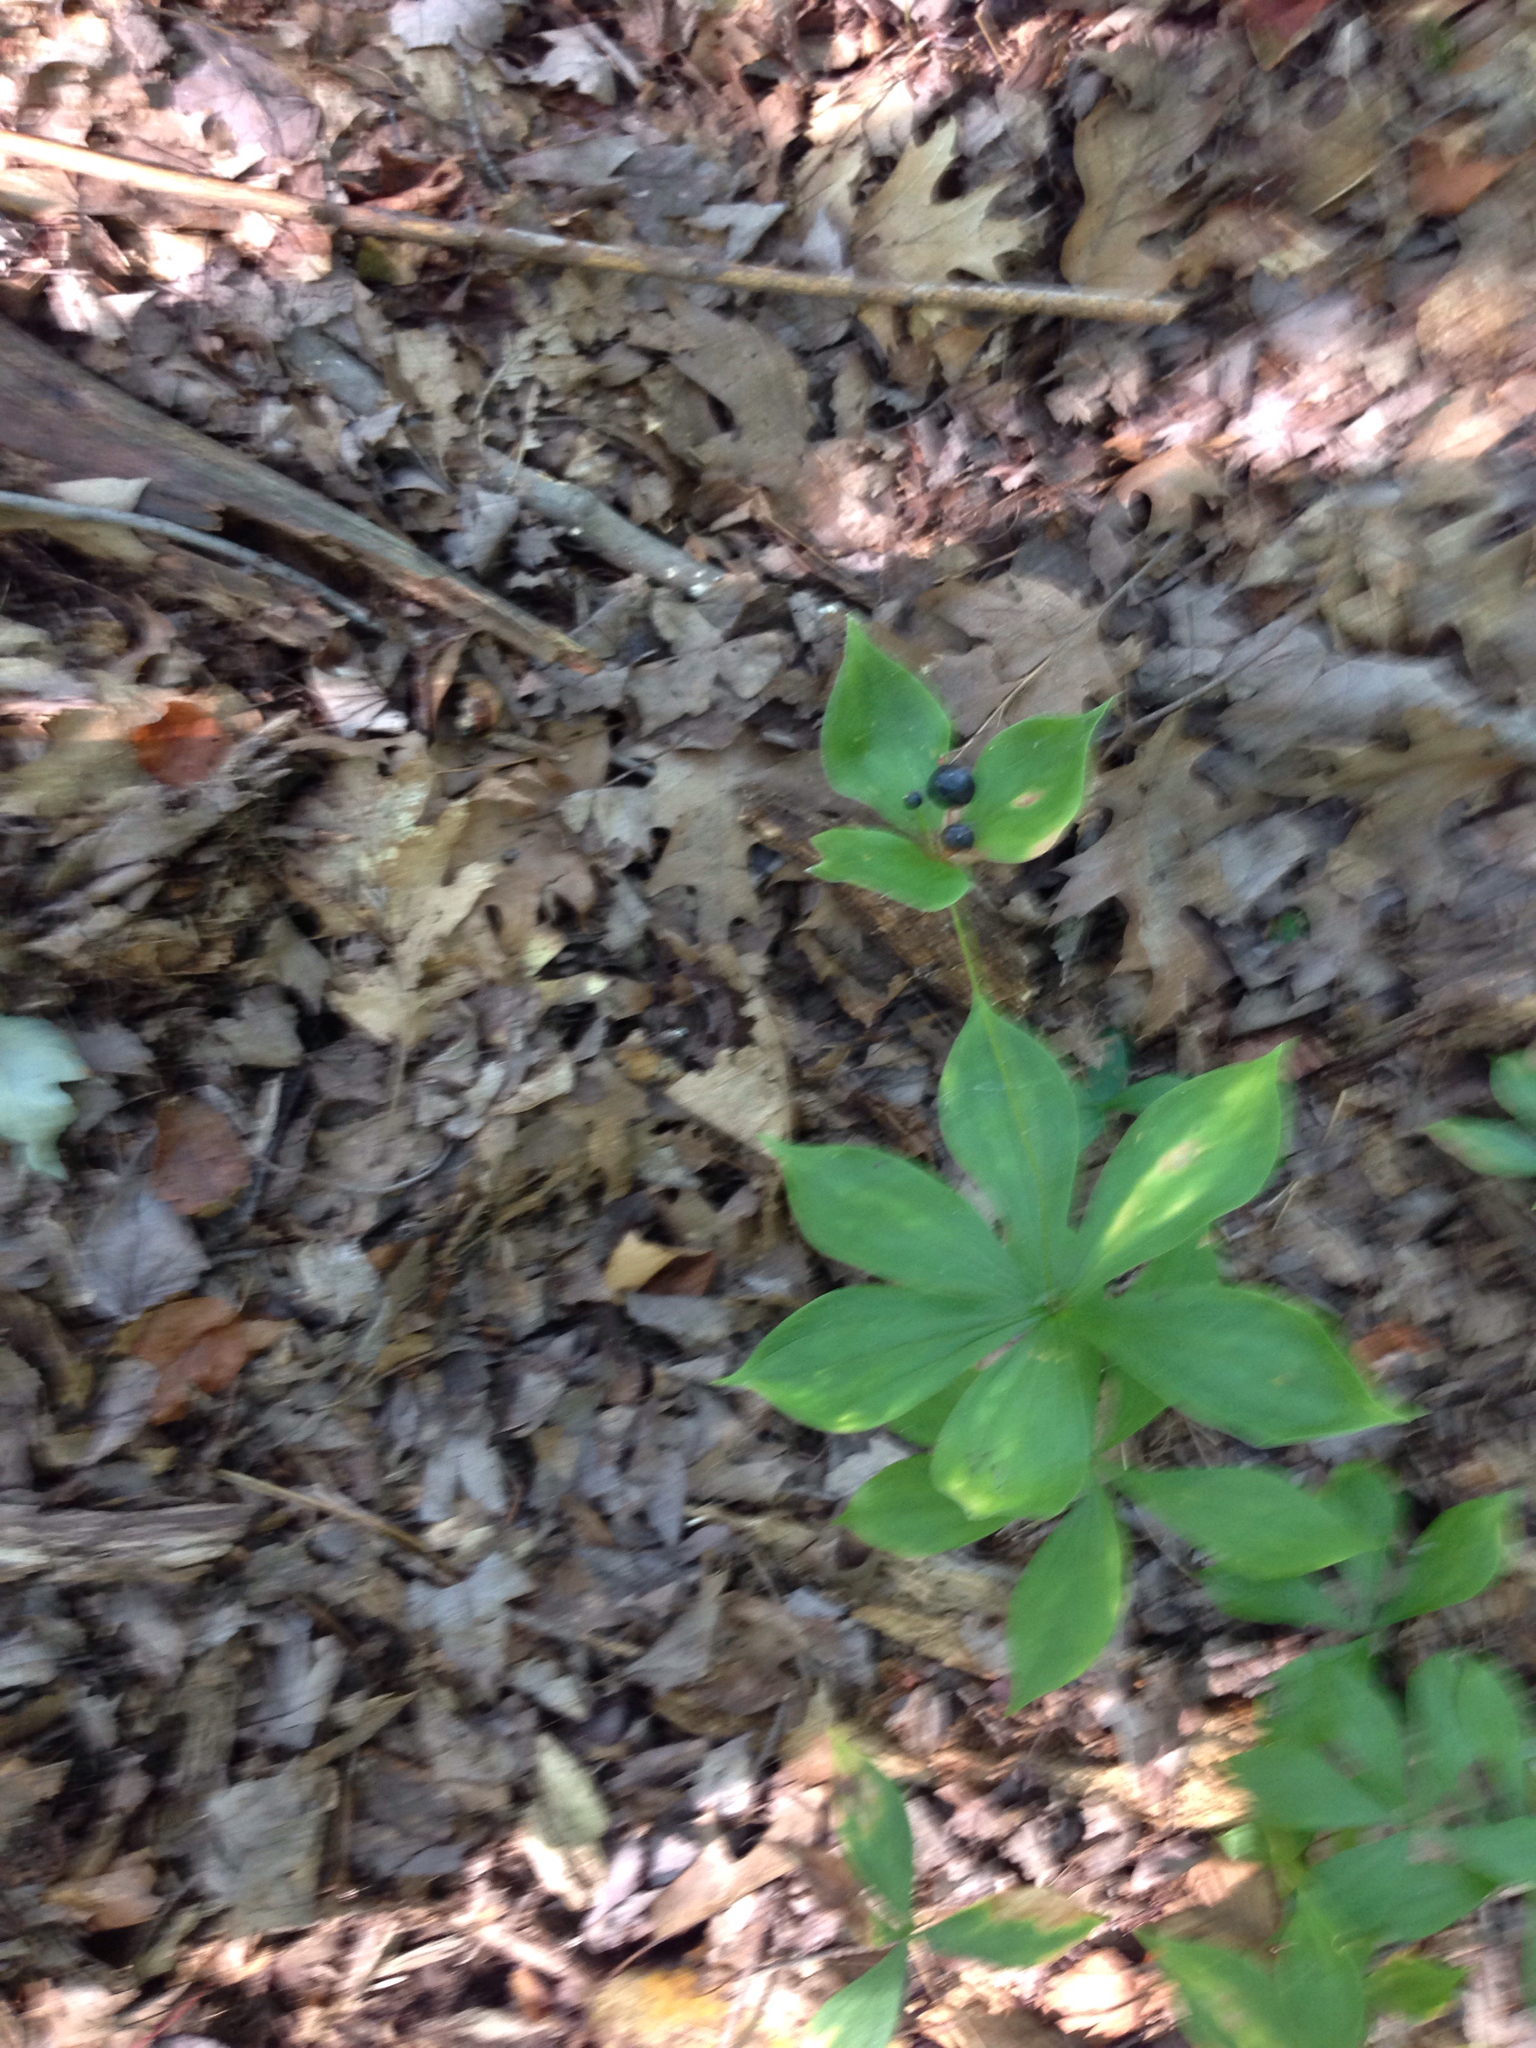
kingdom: Plantae
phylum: Tracheophyta
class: Liliopsida
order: Liliales
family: Liliaceae
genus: Medeola
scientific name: Medeola virginiana
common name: Indian cucumber-root
